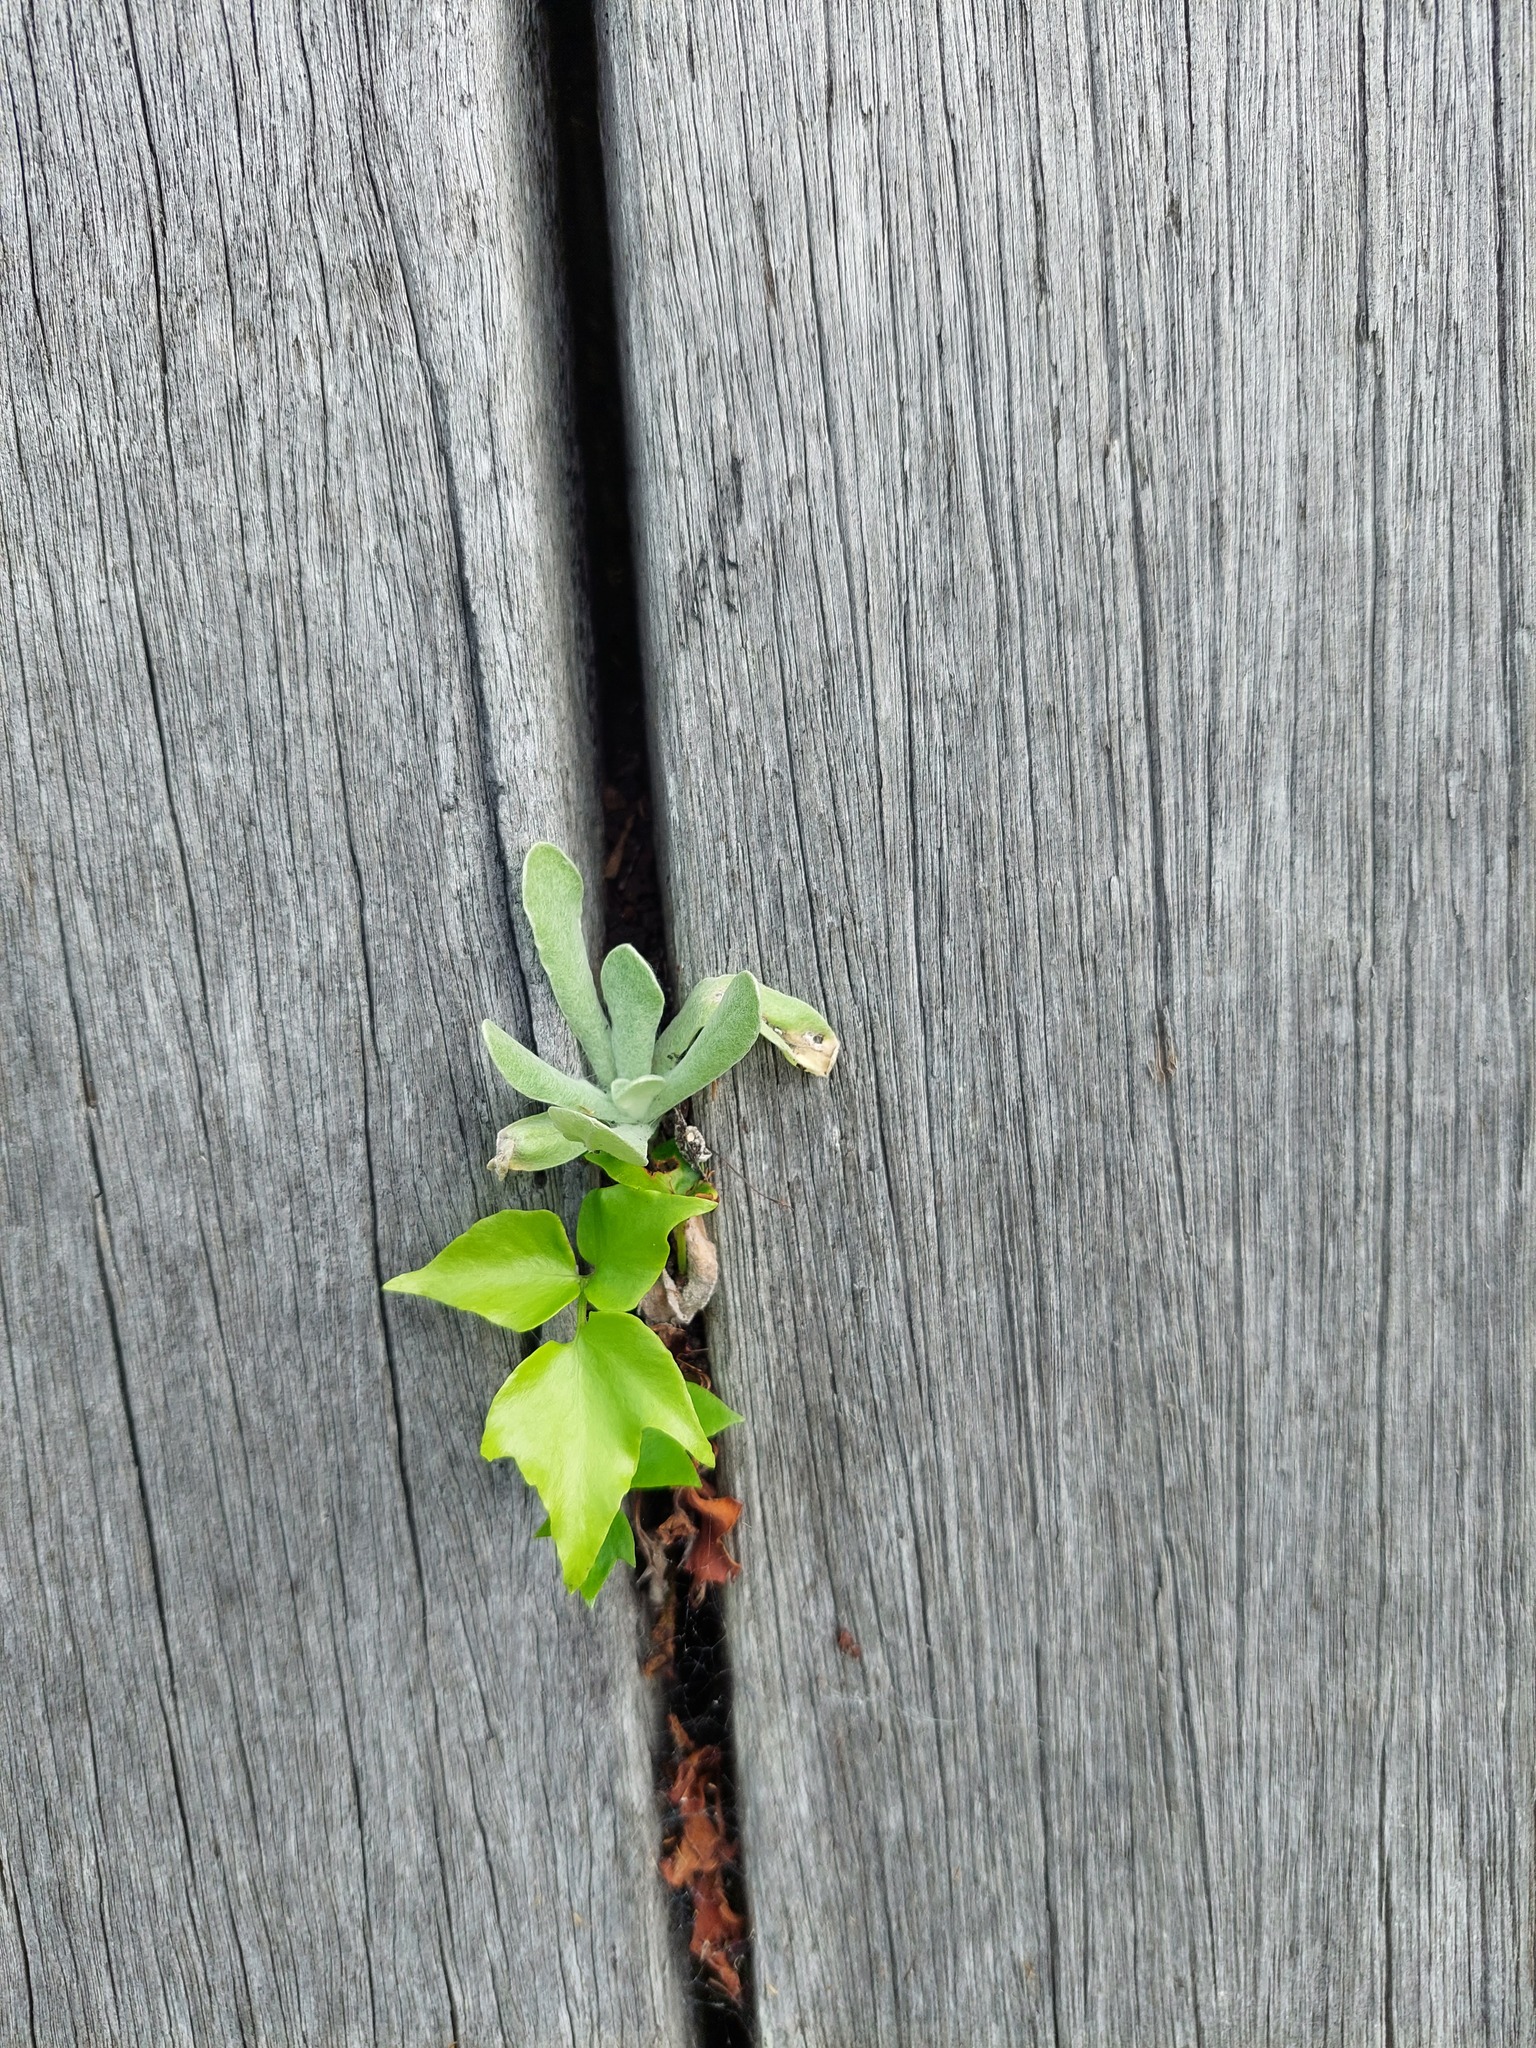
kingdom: Plantae
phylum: Tracheophyta
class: Magnoliopsida
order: Asterales
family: Asteraceae
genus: Helichrysum
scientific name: Helichrysum luteoalbum
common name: Daisy
